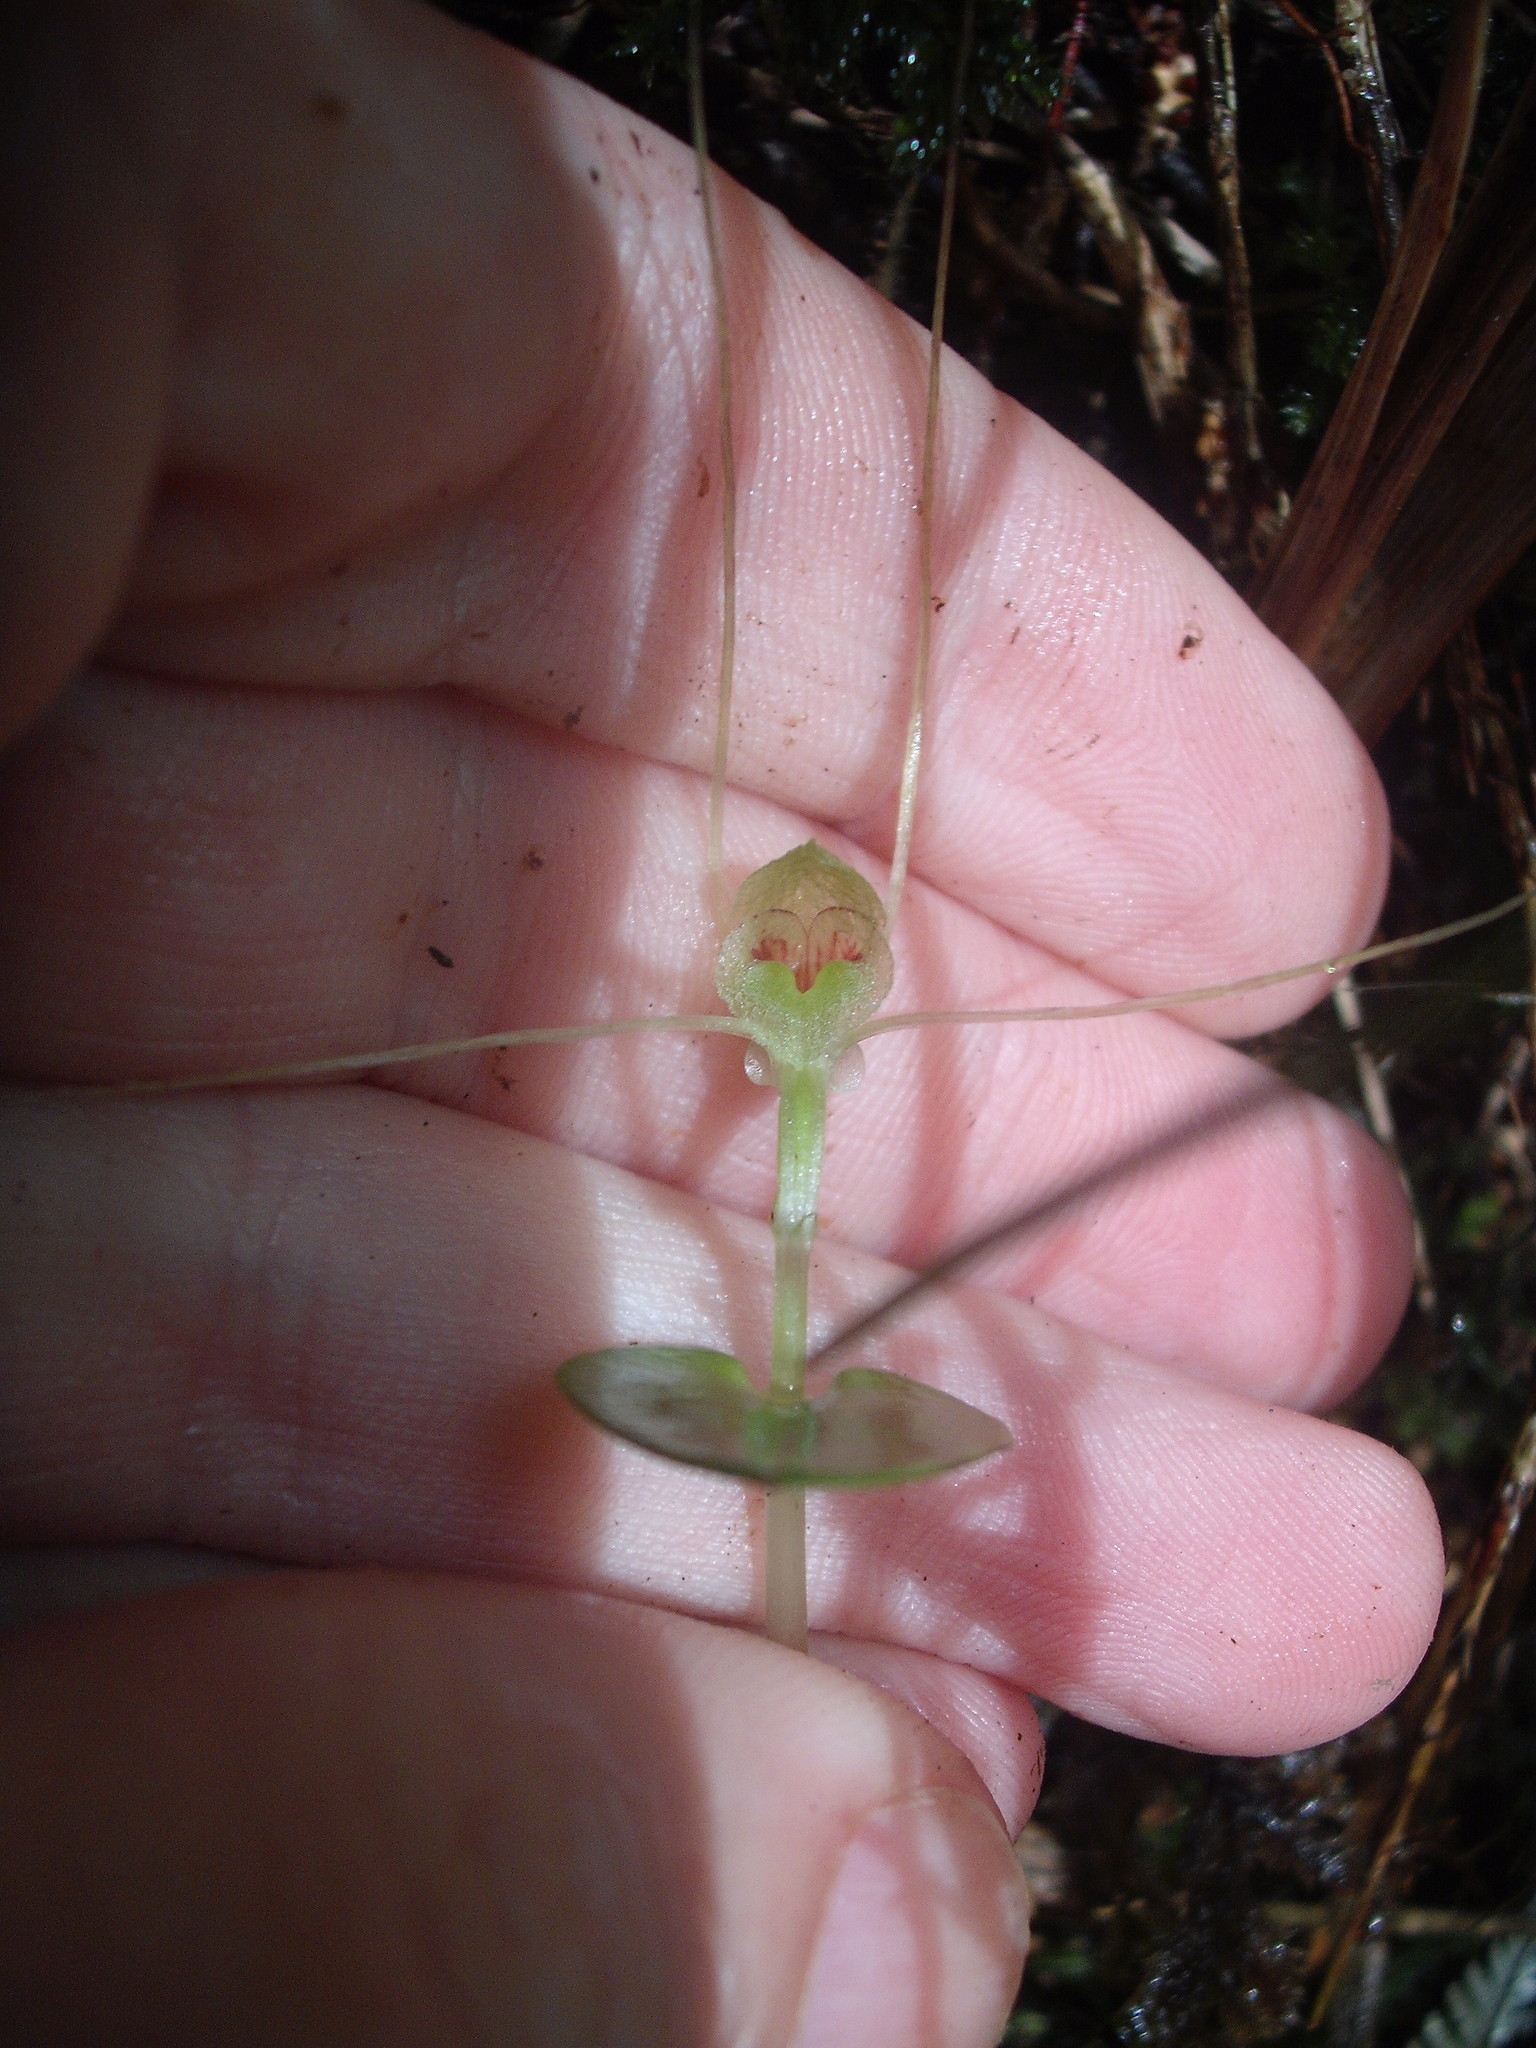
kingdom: Plantae
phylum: Tracheophyta
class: Liliopsida
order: Asparagales
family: Orchidaceae
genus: Corybas
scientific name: Corybas rivularis
